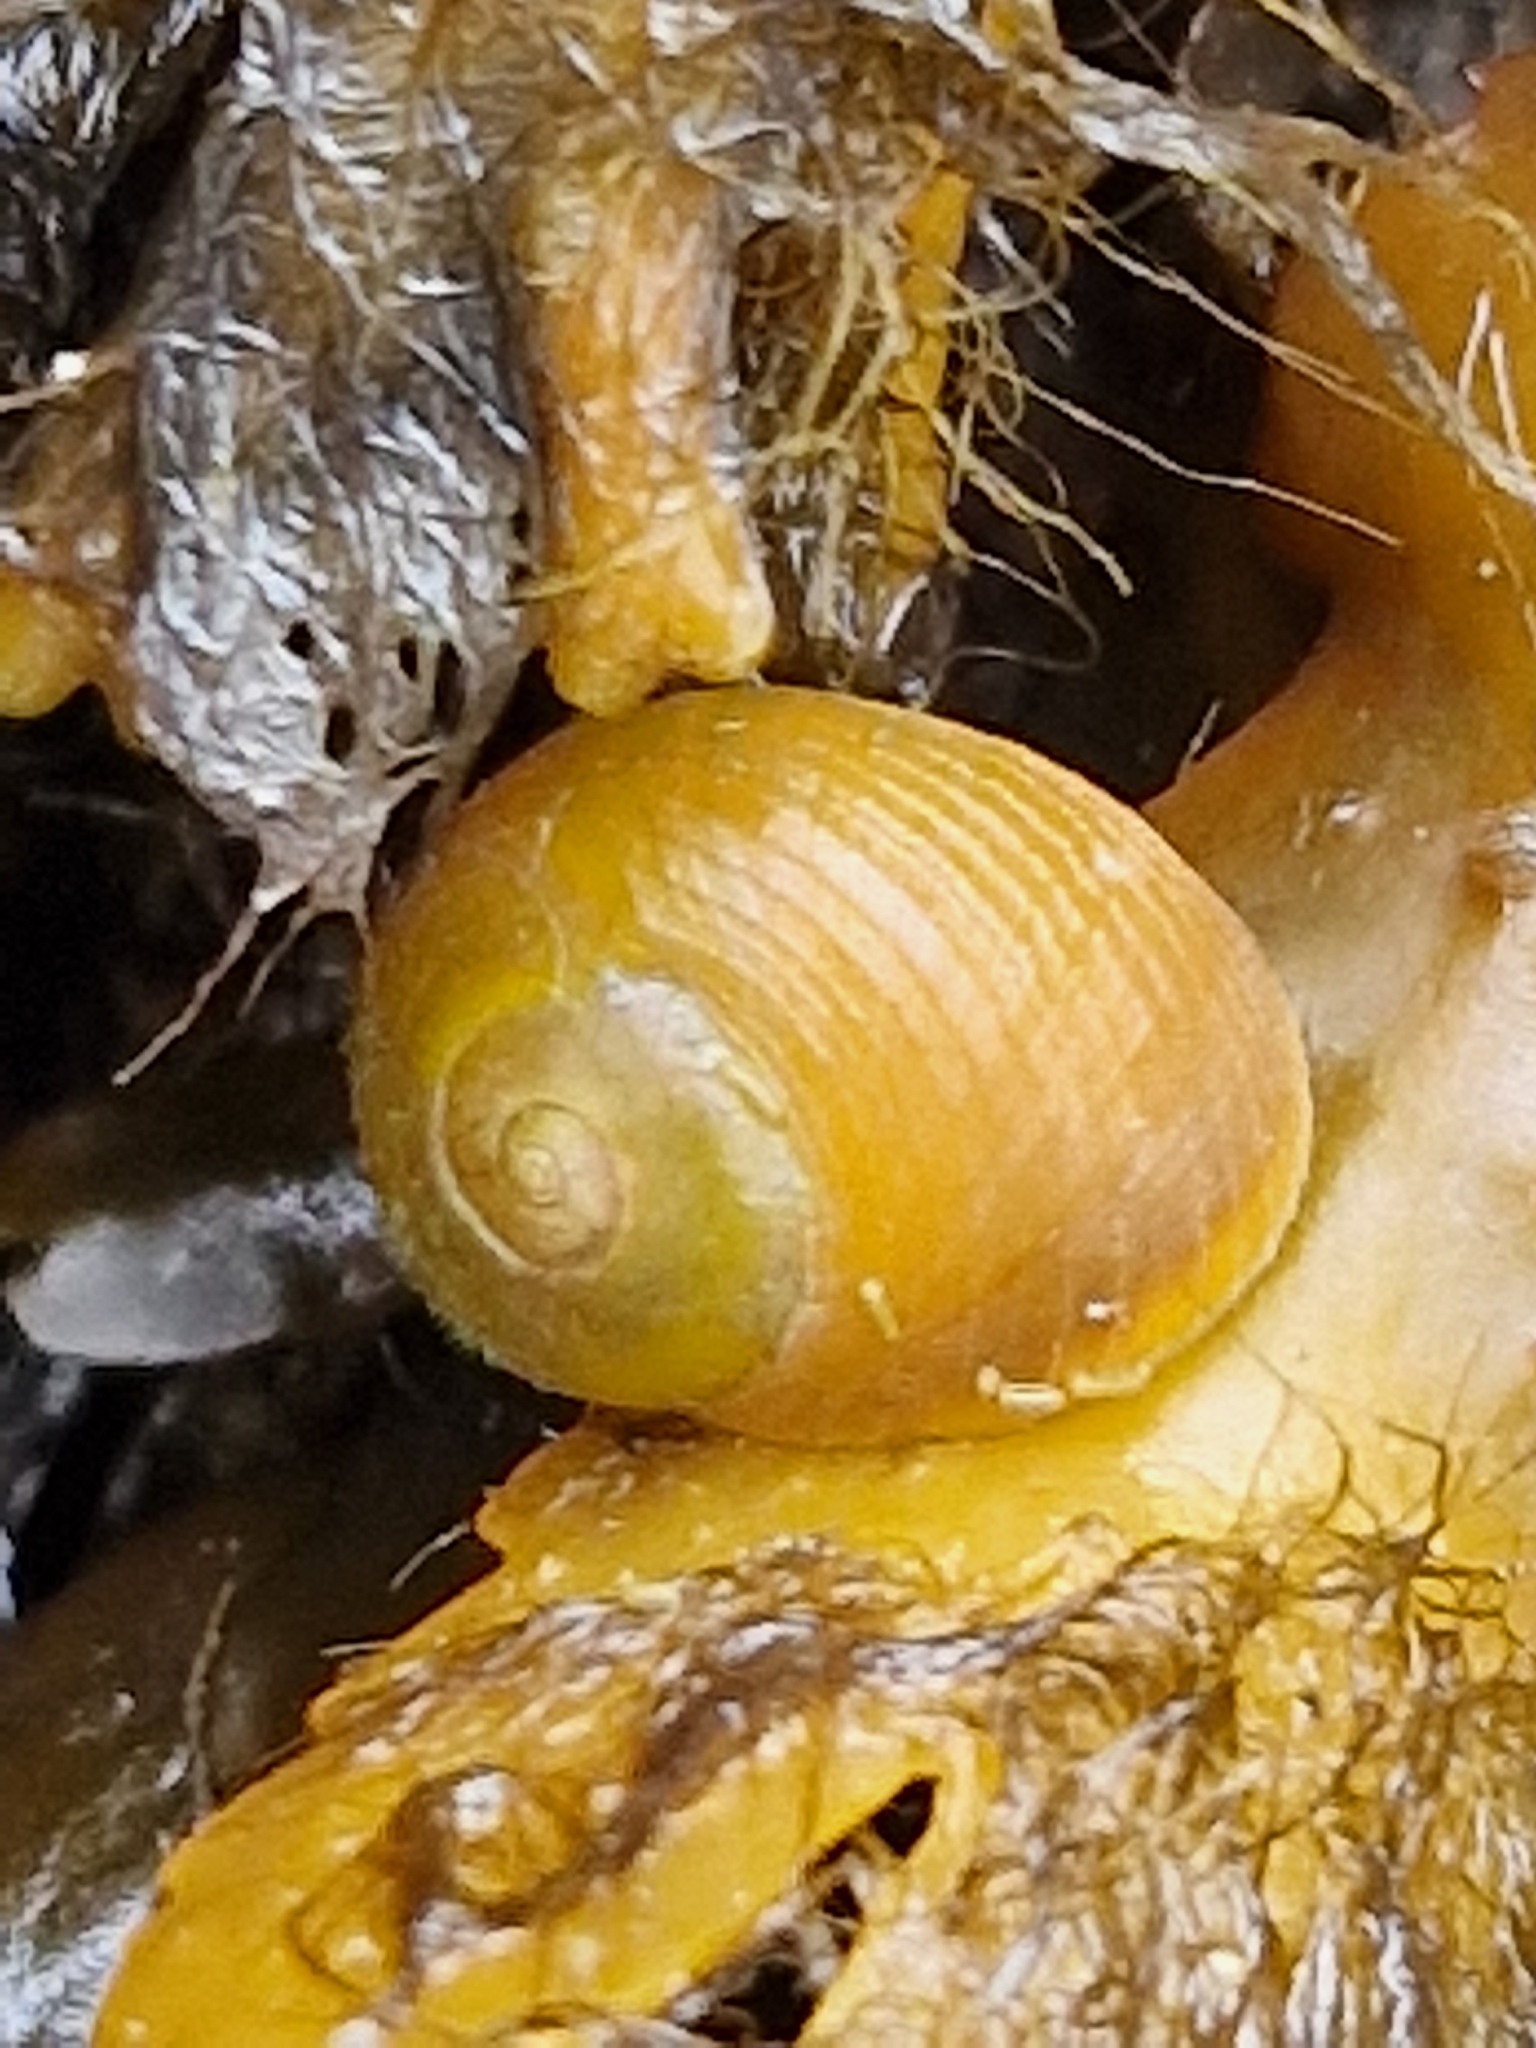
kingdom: Animalia
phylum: Mollusca
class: Gastropoda
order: Littorinimorpha
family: Littorinidae
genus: Littorina
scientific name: Littorina obtusata
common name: Flat periwinkle
